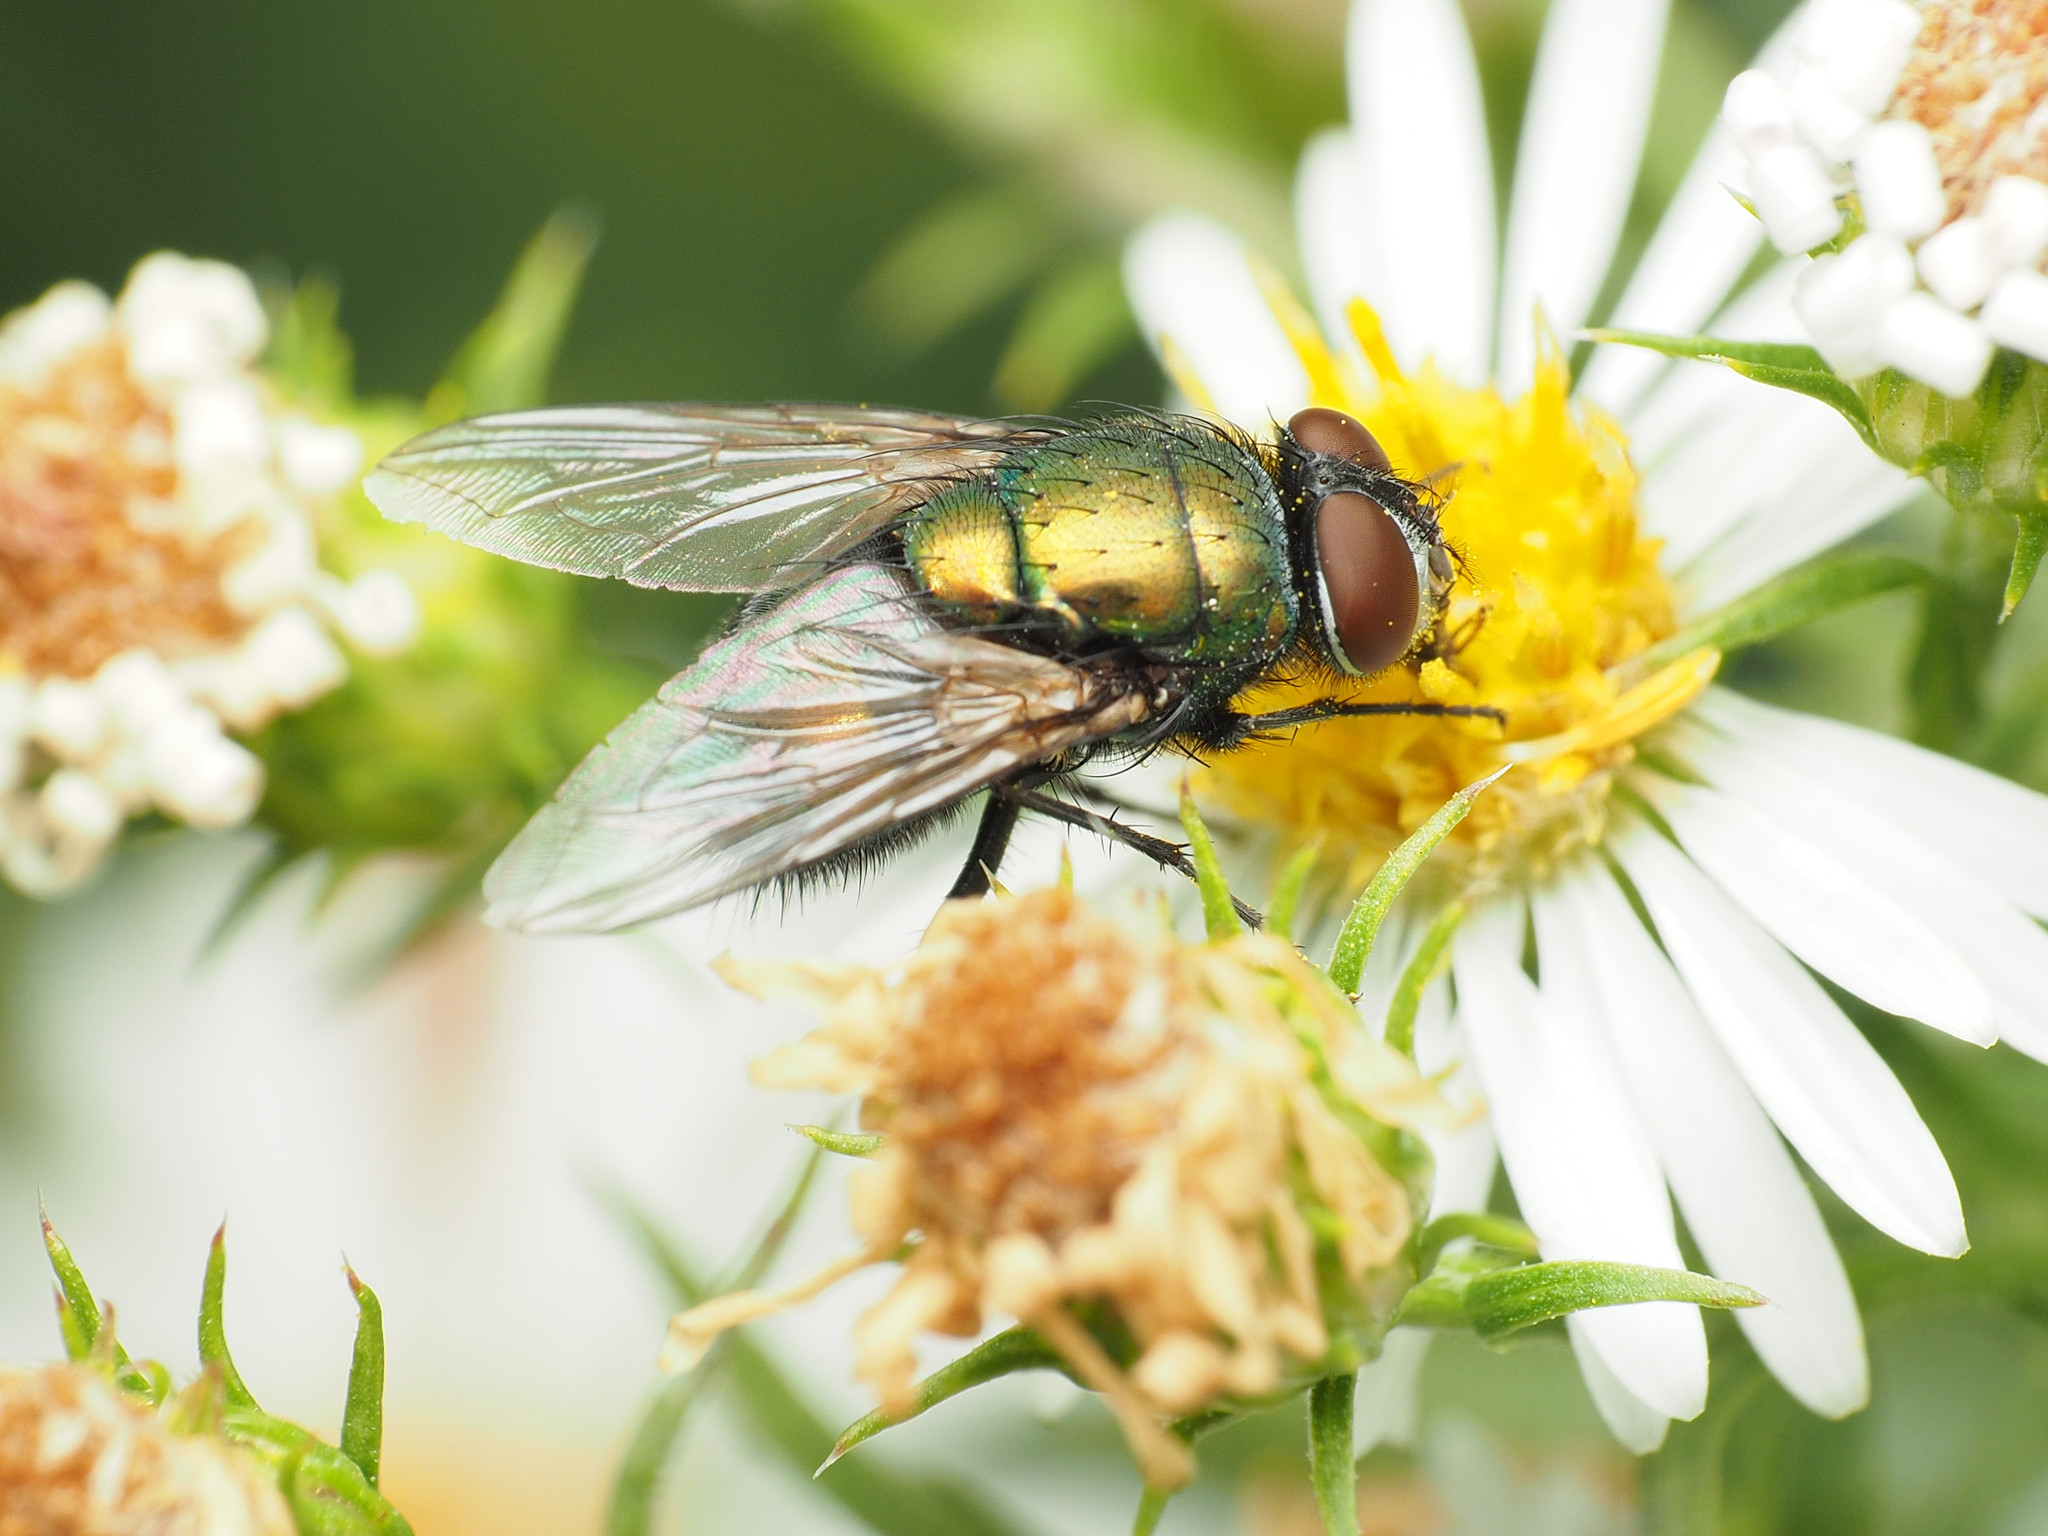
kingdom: Animalia
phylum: Arthropoda
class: Insecta
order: Diptera
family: Calliphoridae
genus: Lucilia
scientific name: Lucilia sericata
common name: Blow fly
